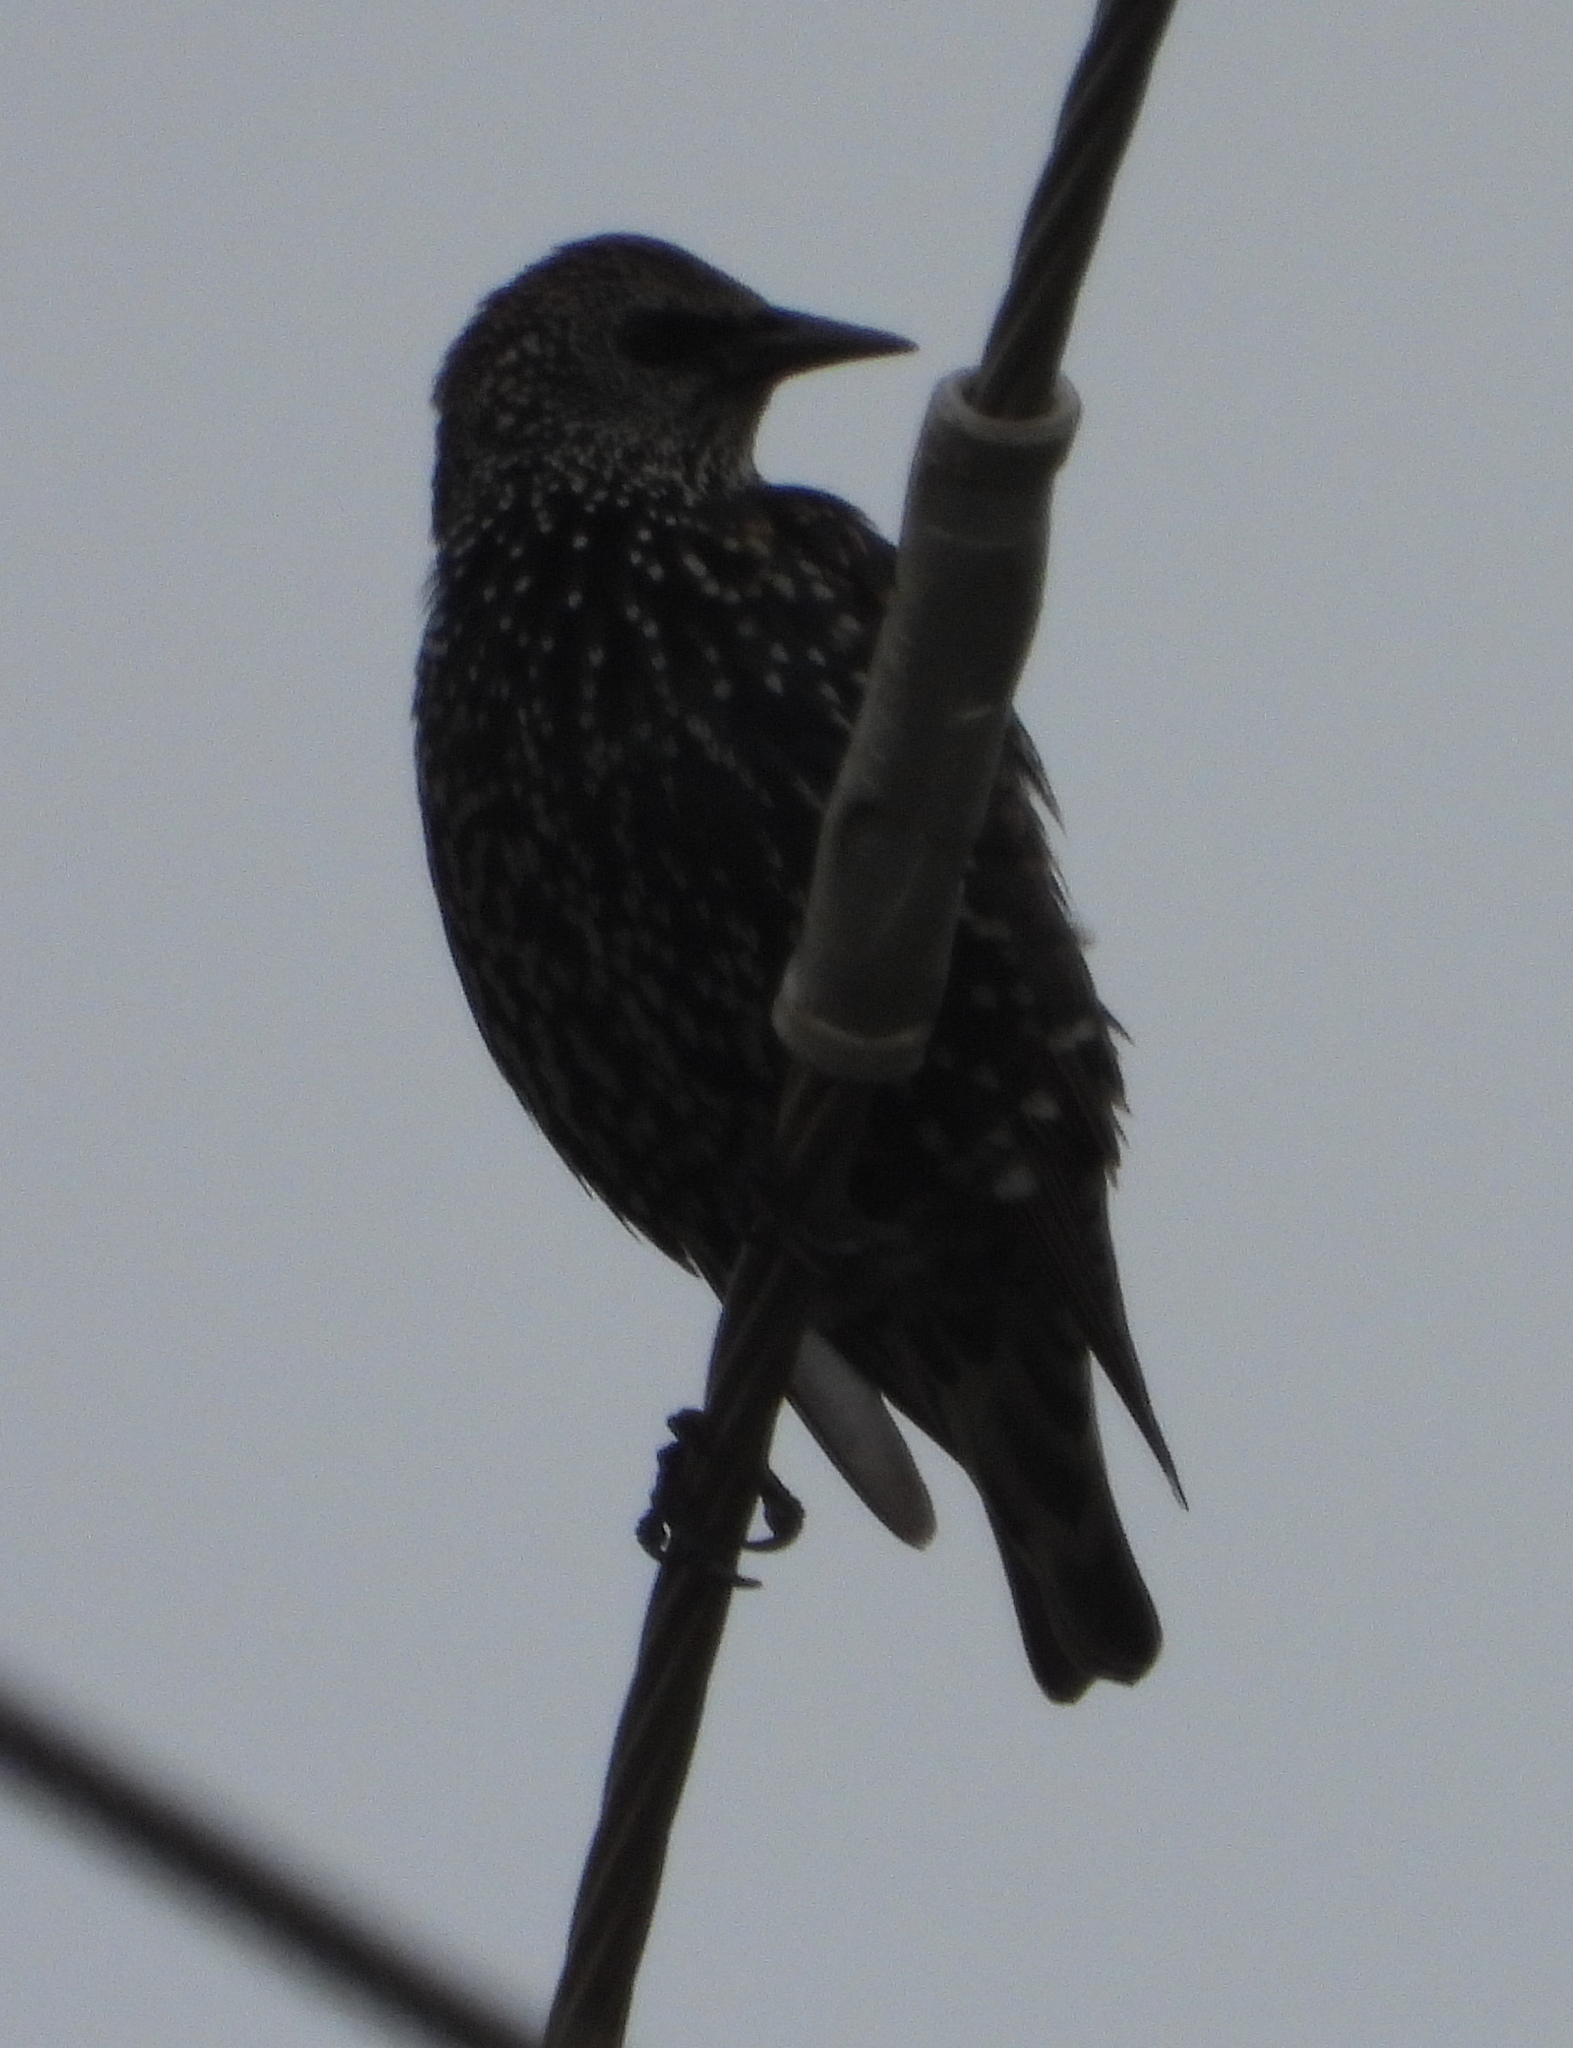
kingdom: Animalia
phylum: Chordata
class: Aves
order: Passeriformes
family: Sturnidae
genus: Sturnus
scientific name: Sturnus vulgaris
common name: Common starling
